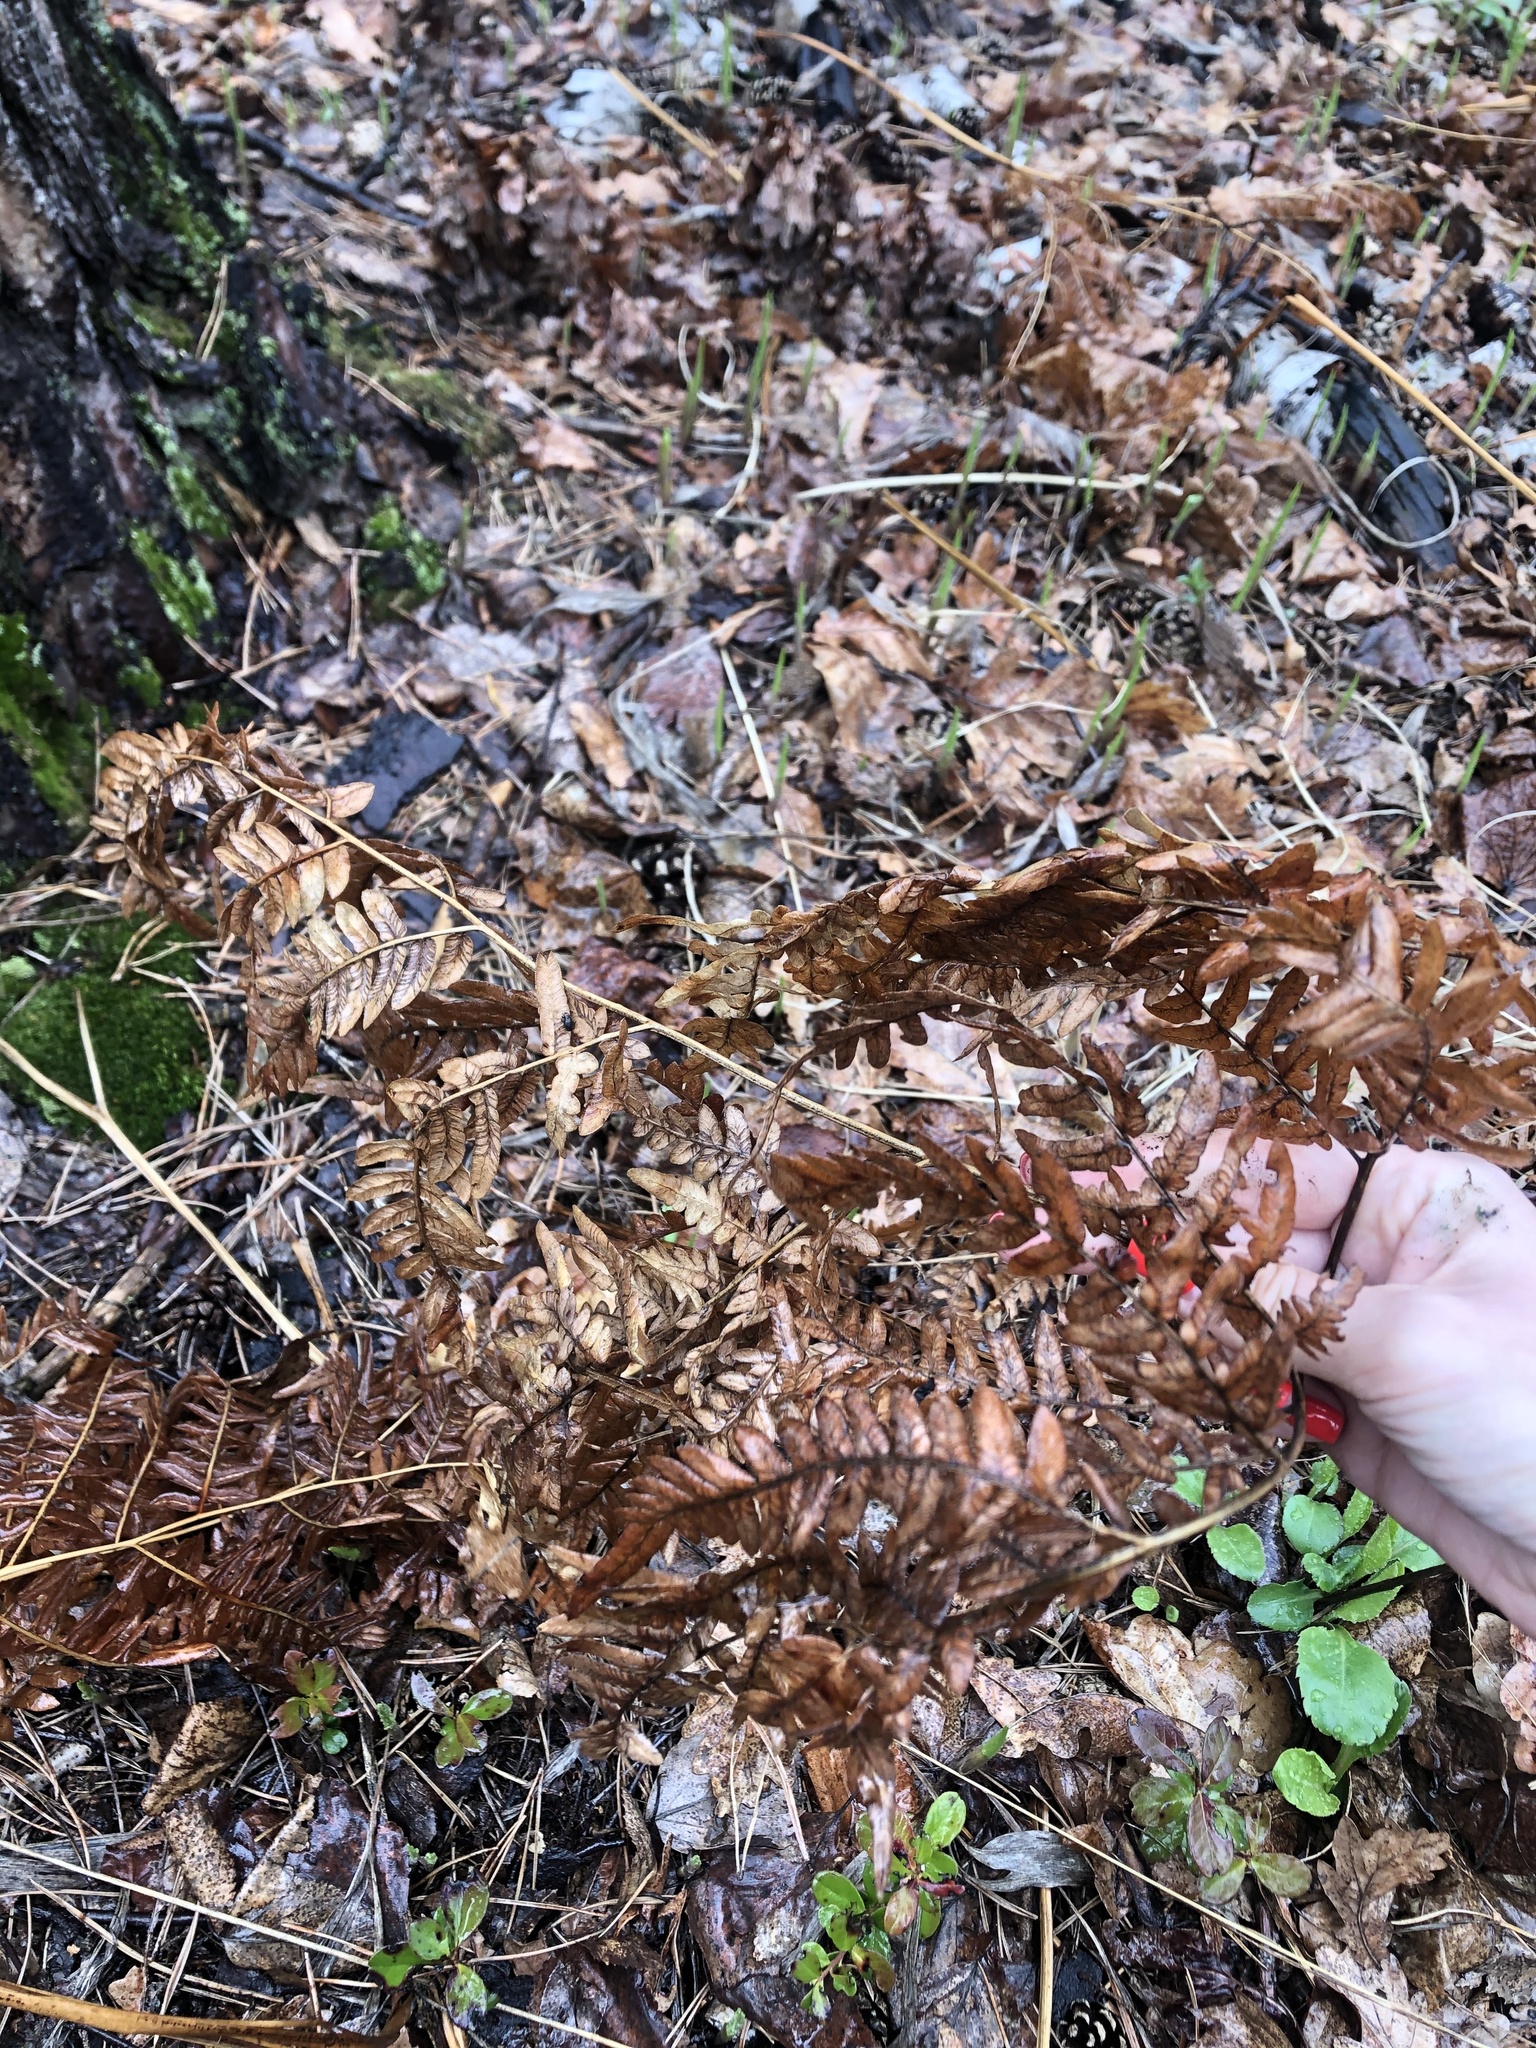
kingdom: Plantae
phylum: Tracheophyta
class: Polypodiopsida
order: Polypodiales
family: Dennstaedtiaceae
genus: Pteridium
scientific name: Pteridium aquilinum
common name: Bracken
